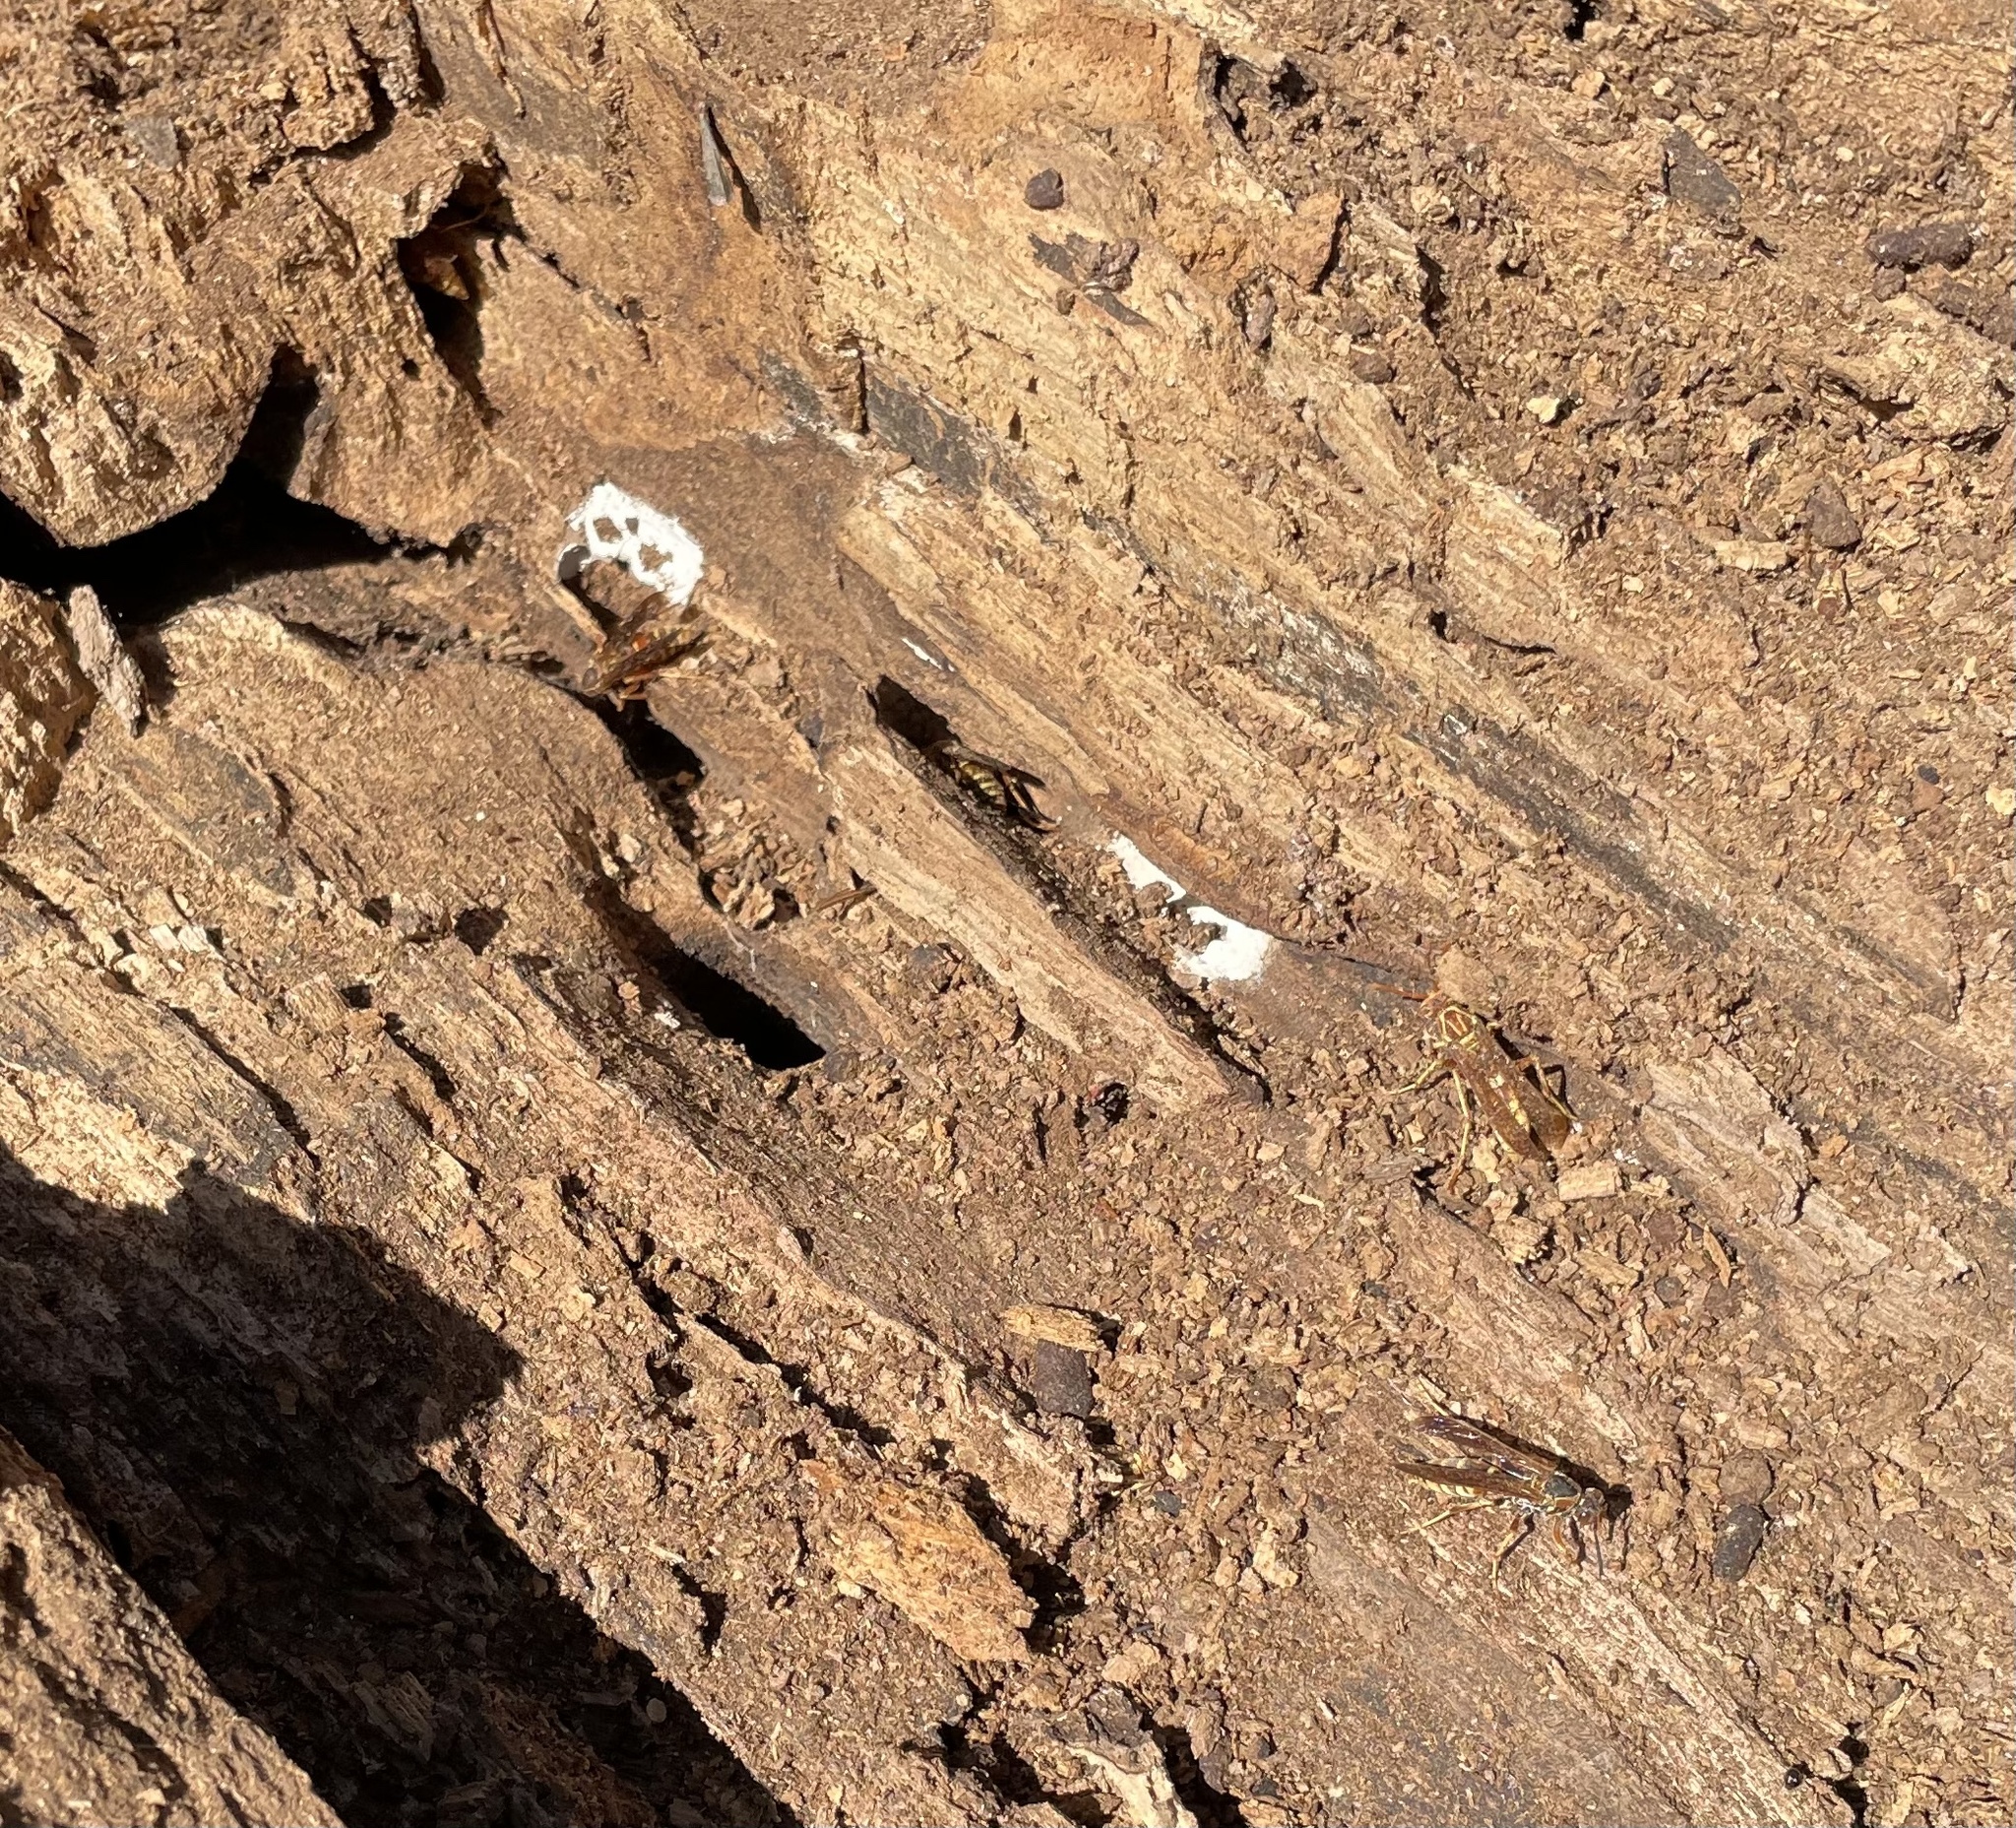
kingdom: Animalia
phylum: Arthropoda
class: Insecta
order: Hymenoptera
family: Eumenidae
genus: Polistes
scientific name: Polistes dorsalis
